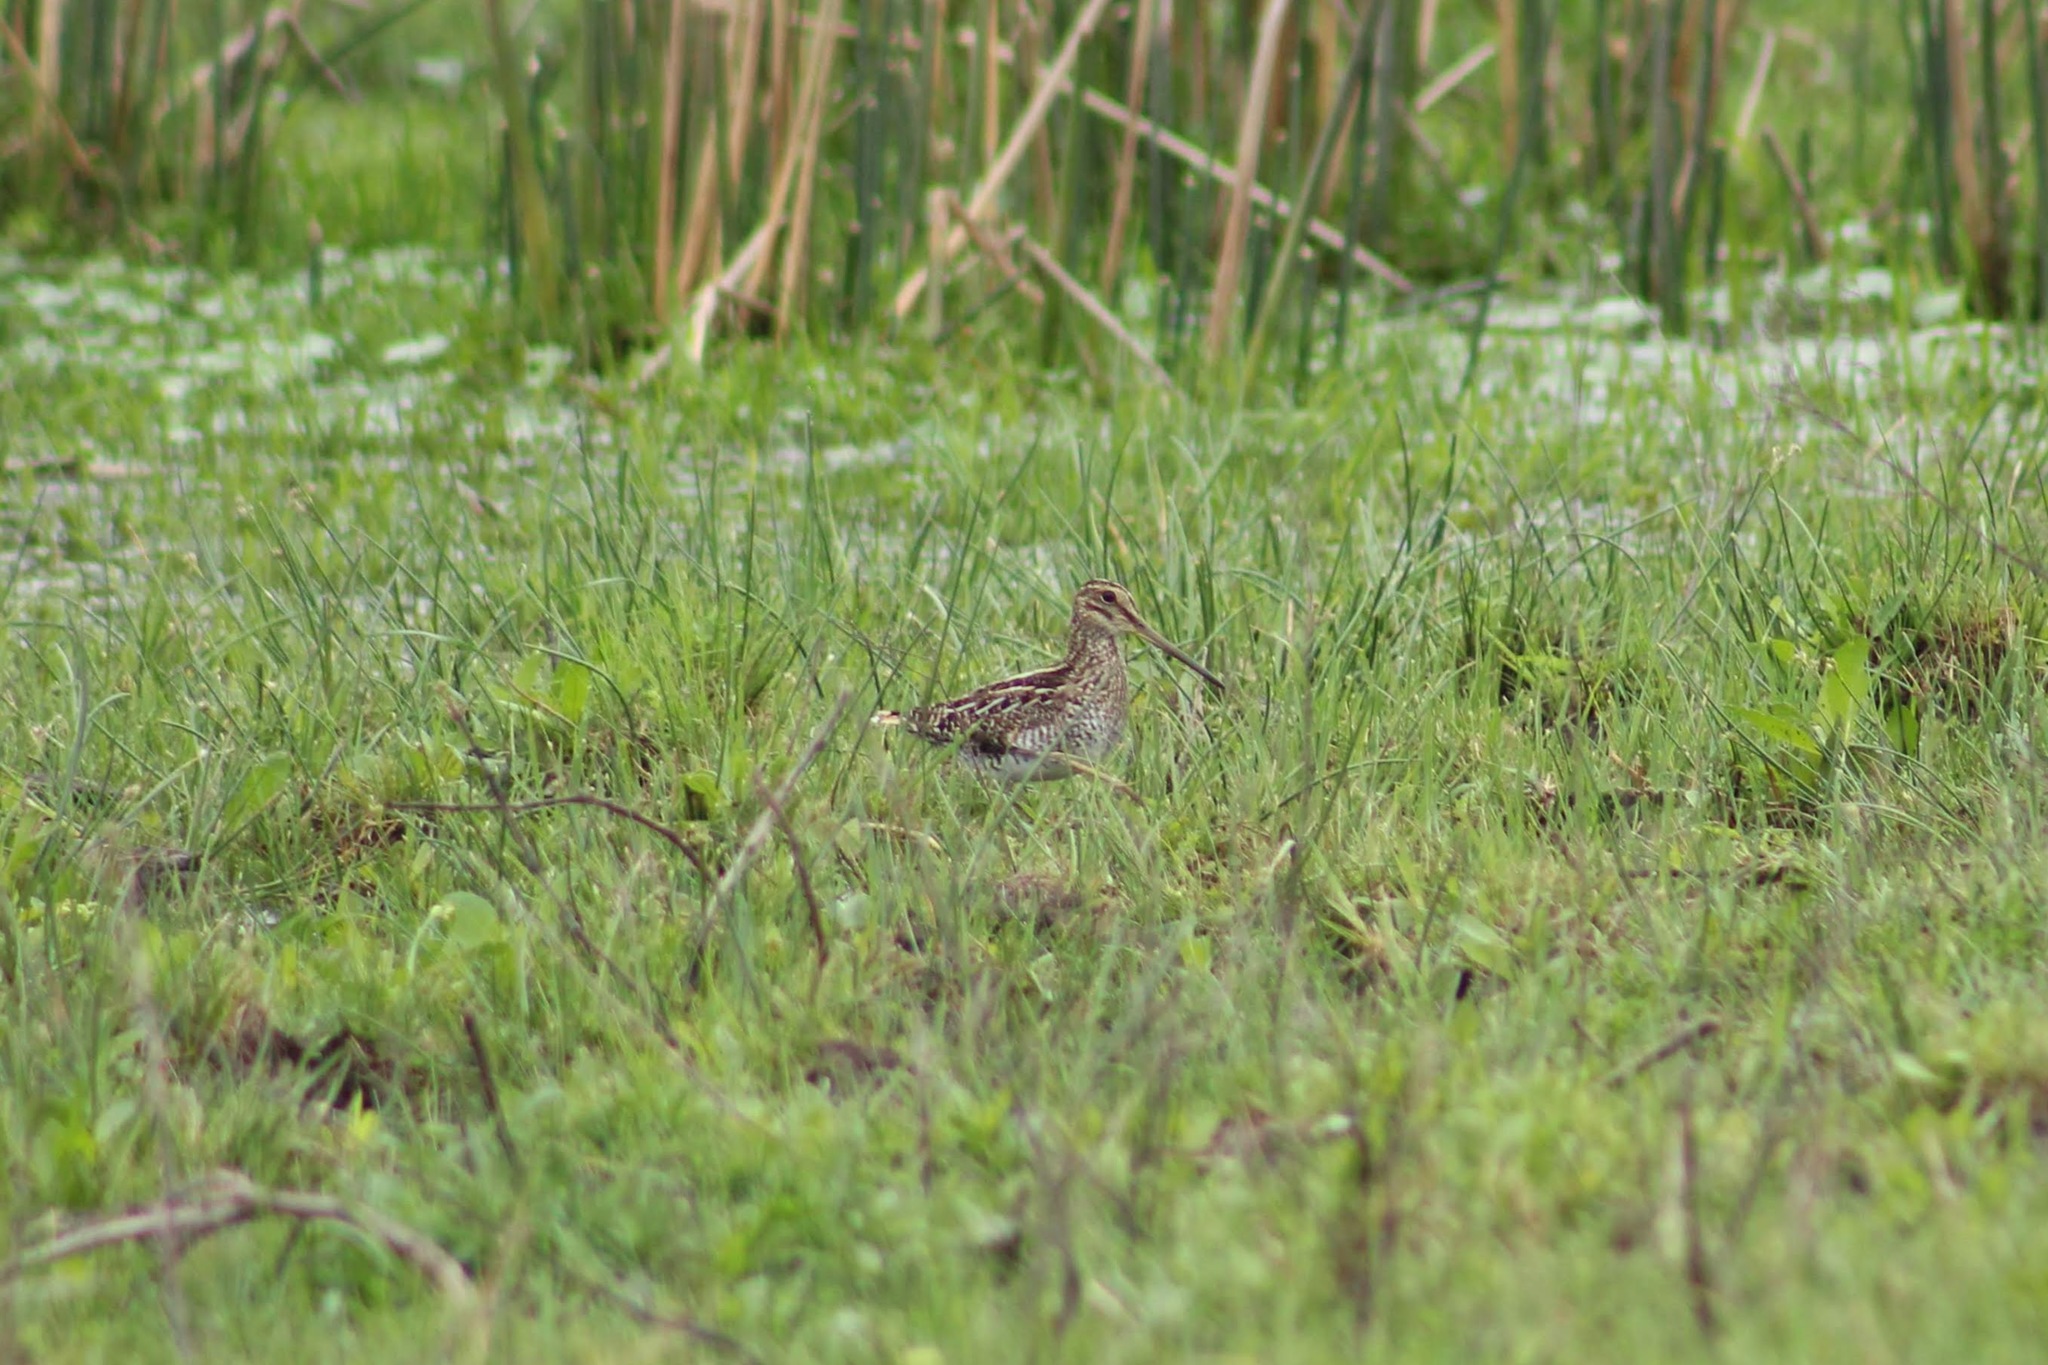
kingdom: Animalia
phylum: Chordata
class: Aves
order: Charadriiformes
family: Scolopacidae
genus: Gallinago
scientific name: Gallinago paraguaiae
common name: South american snipe
